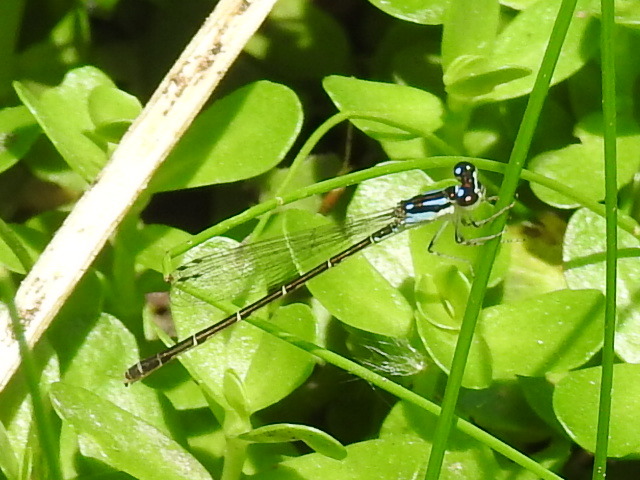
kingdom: Animalia
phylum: Arthropoda
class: Insecta
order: Odonata
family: Coenagrionidae
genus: Ischnura
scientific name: Ischnura posita
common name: Fragile forktail
